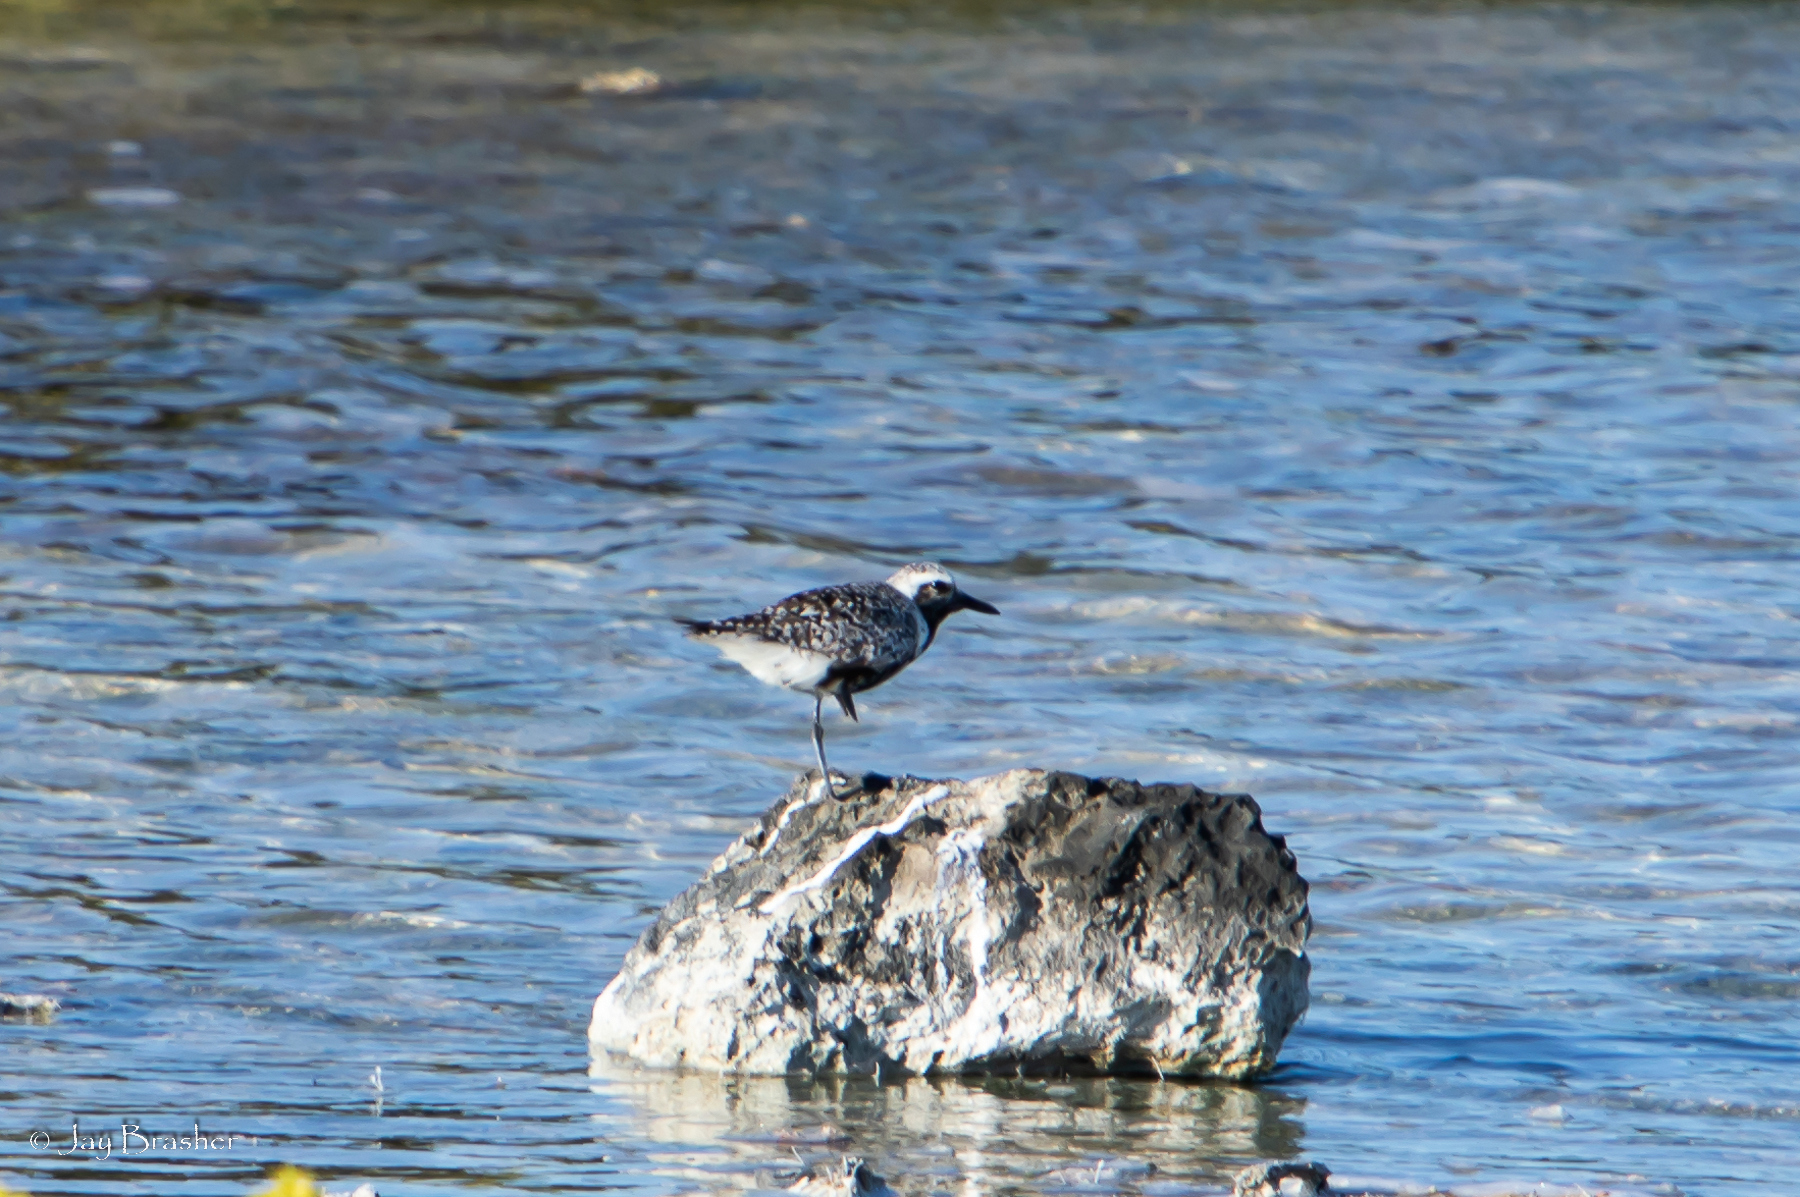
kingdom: Animalia
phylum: Chordata
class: Aves
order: Charadriiformes
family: Charadriidae
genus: Pluvialis
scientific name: Pluvialis squatarola
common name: Grey plover
